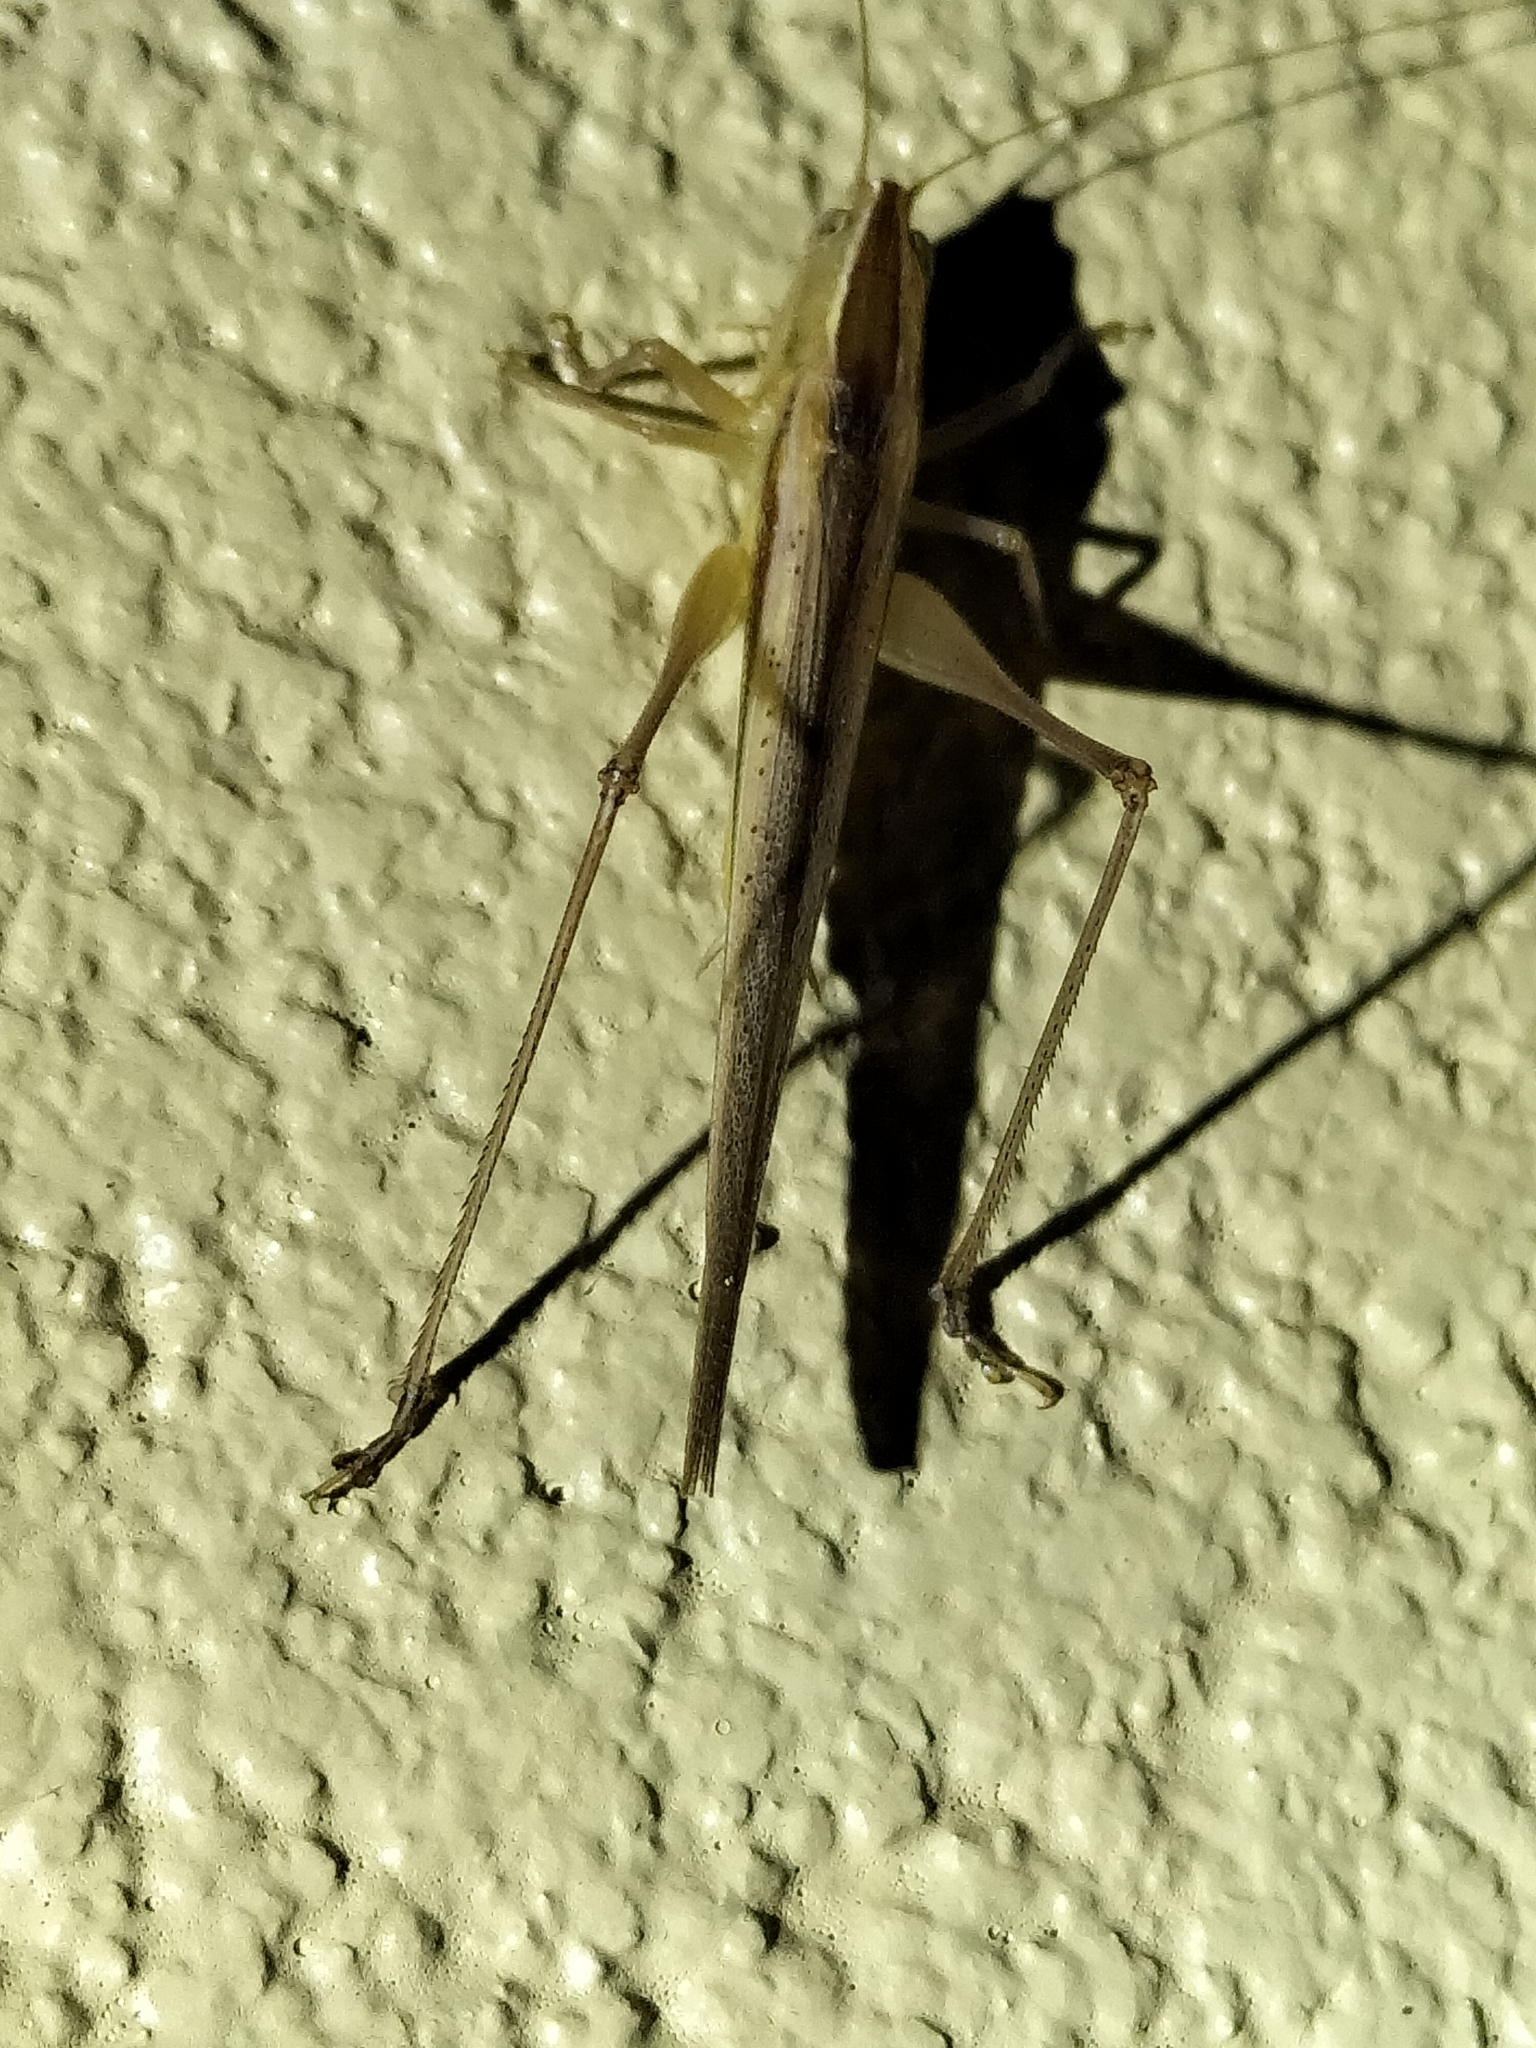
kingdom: Animalia
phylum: Arthropoda
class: Insecta
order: Orthoptera
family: Tettigoniidae
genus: Conocephalus
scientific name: Conocephalus upoluensis
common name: Upolu meadow katydid
